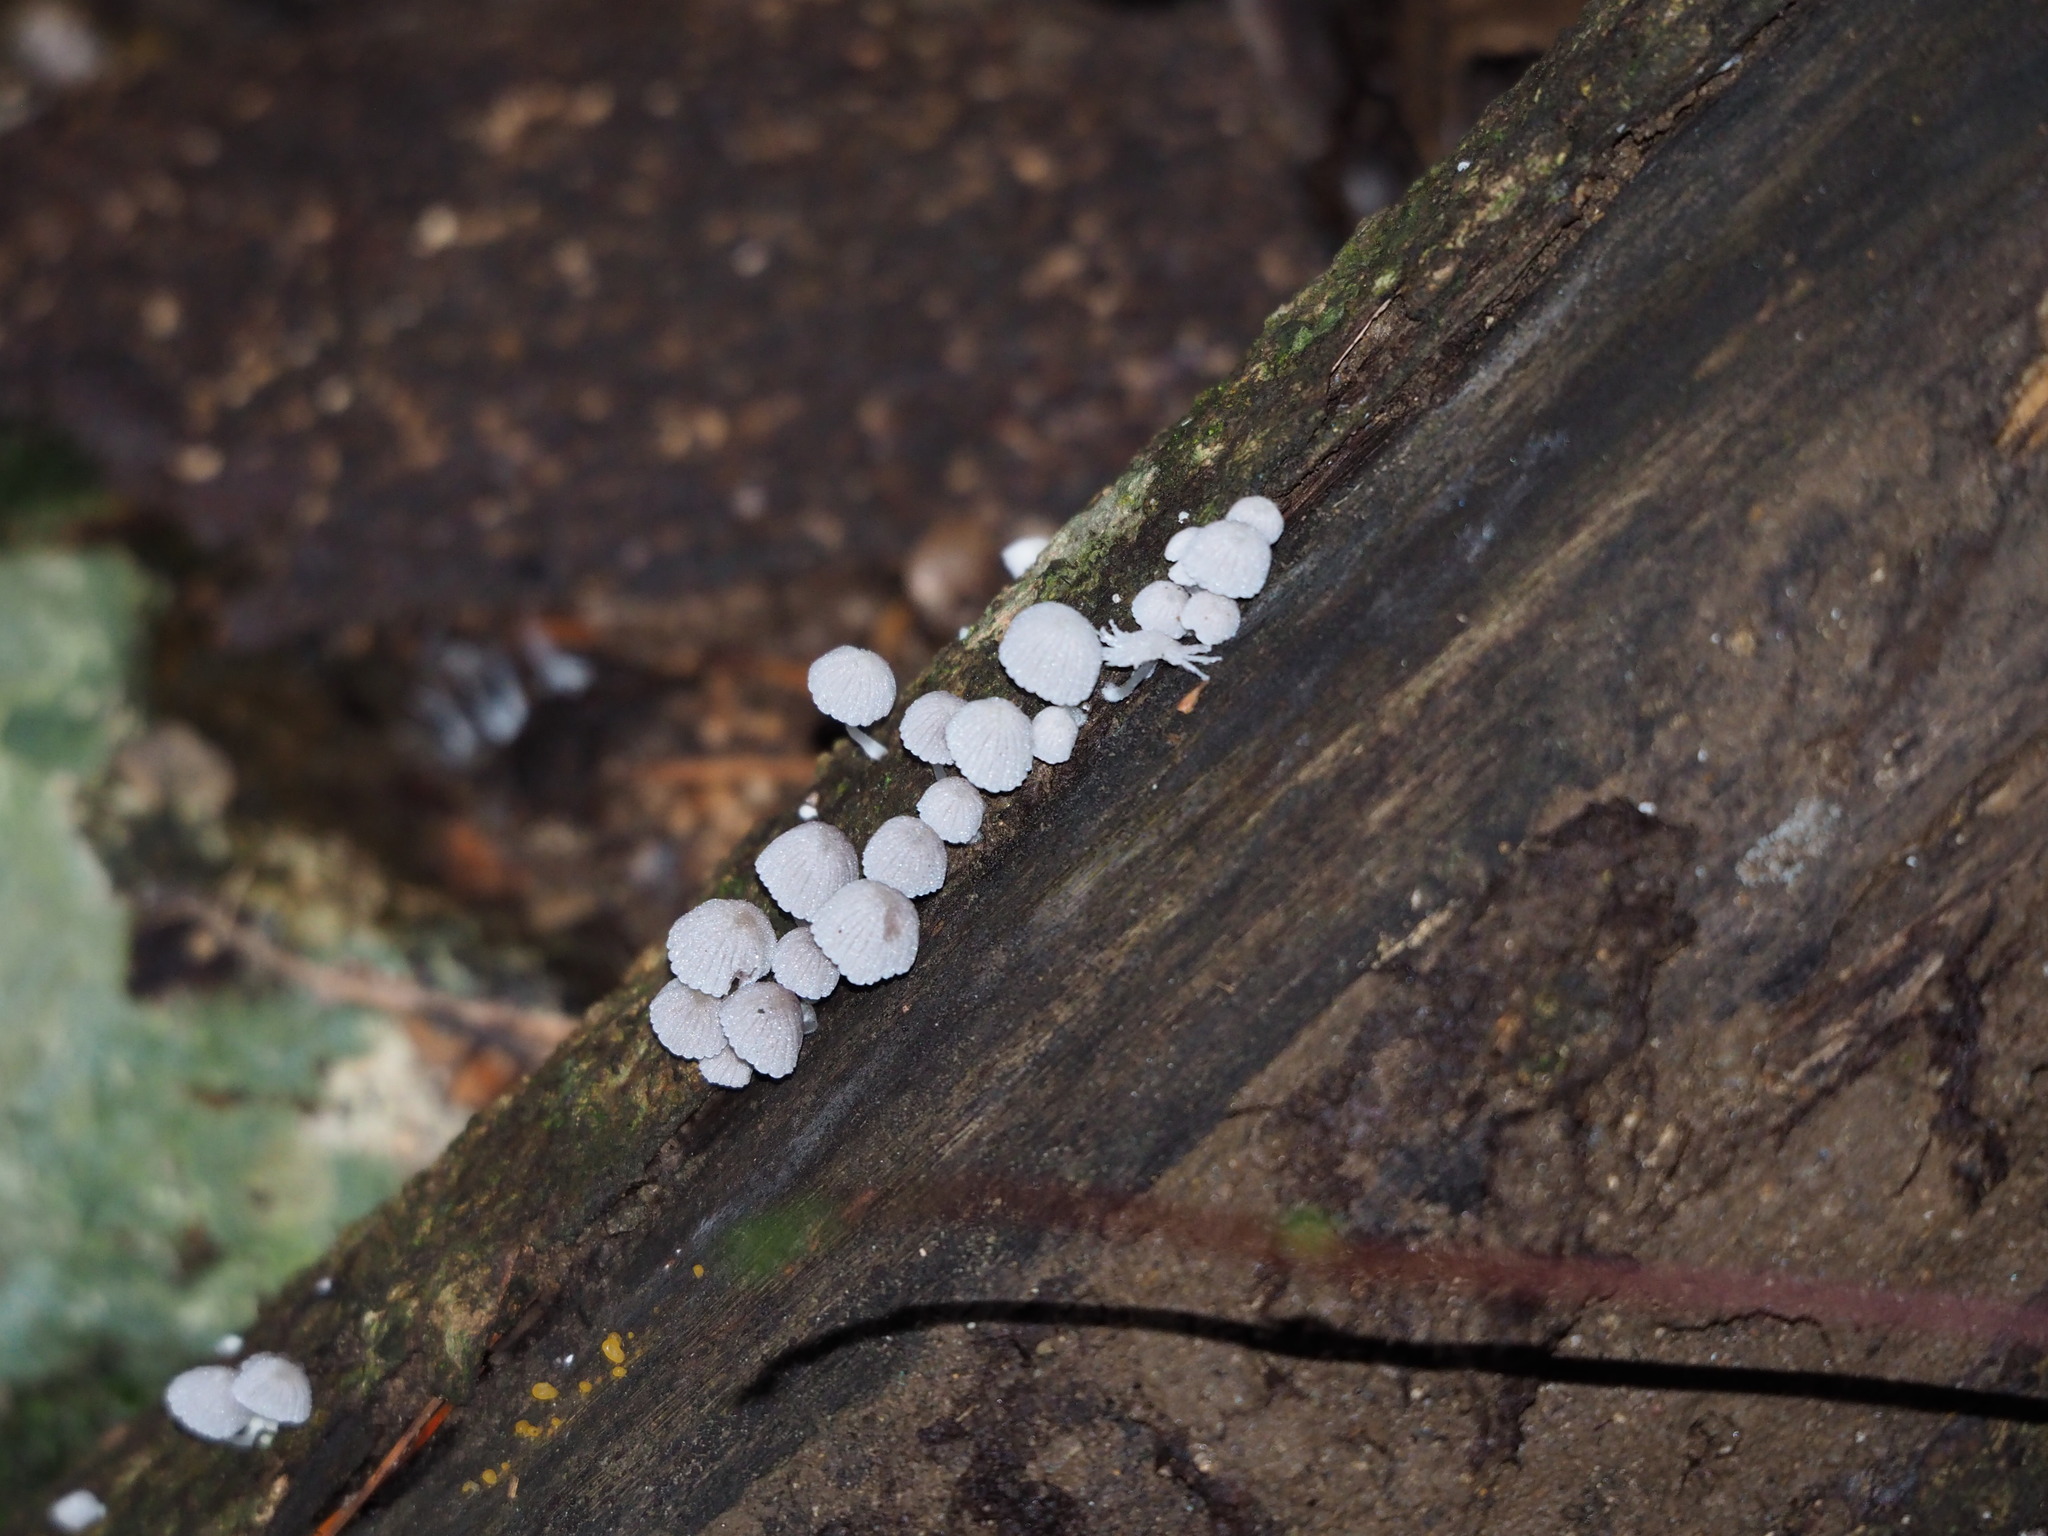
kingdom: Fungi
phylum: Basidiomycota
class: Agaricomycetes
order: Agaricales
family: Psathyrellaceae
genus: Coprinellus
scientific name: Coprinellus disseminatus
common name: Fairies' bonnets
